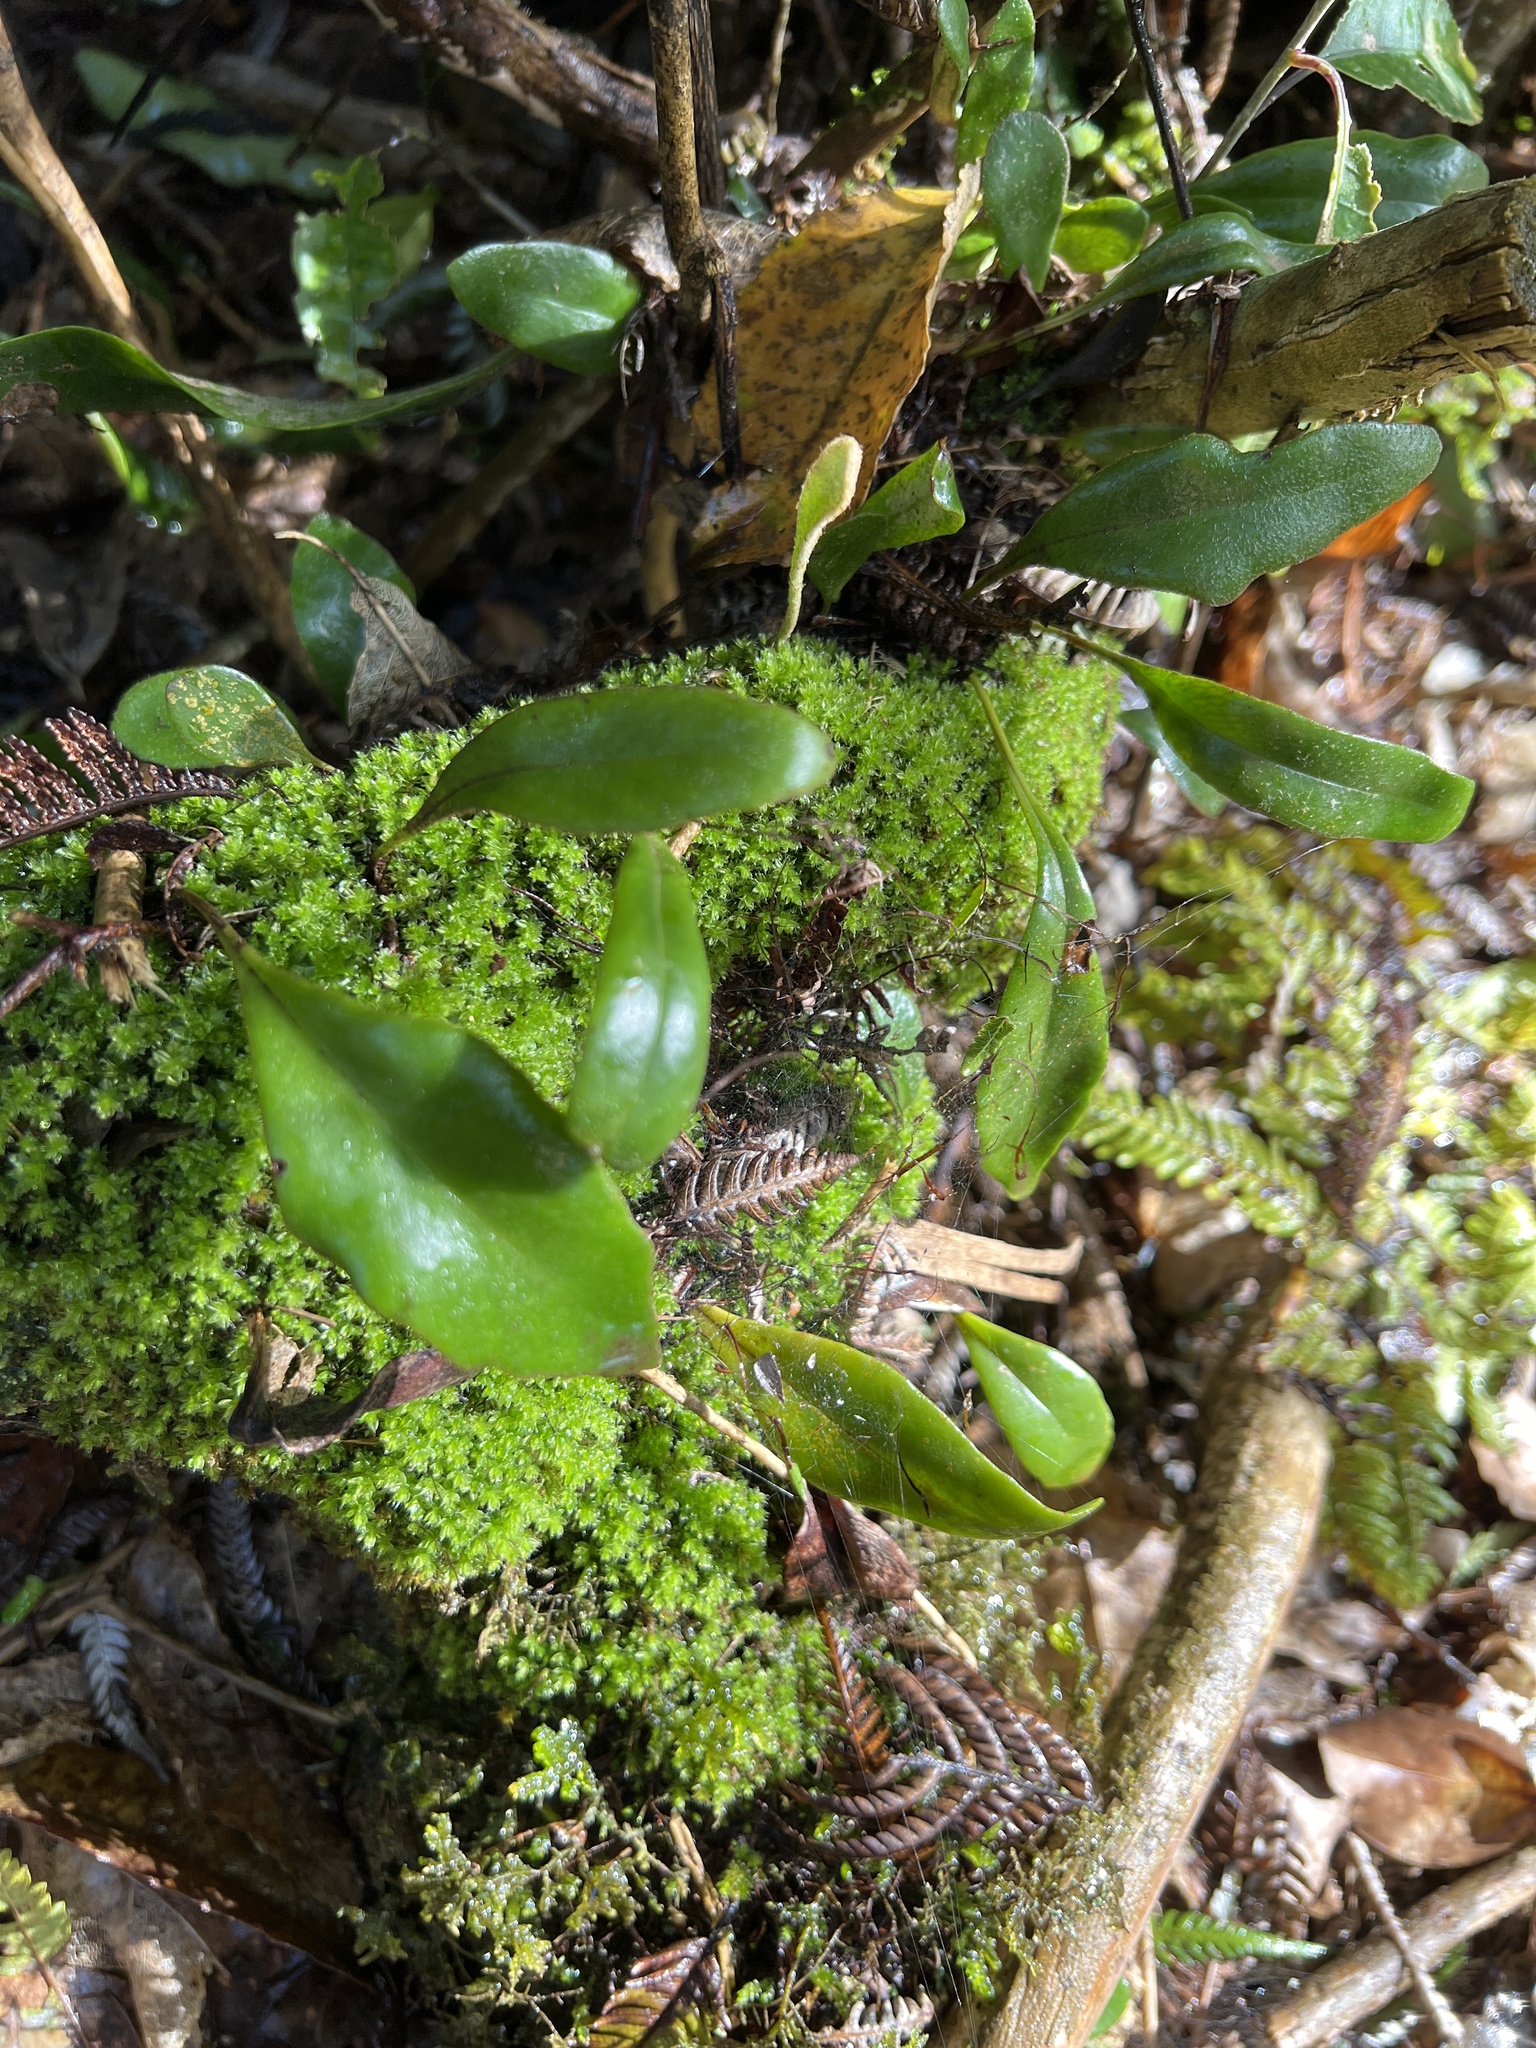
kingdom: Plantae
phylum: Tracheophyta
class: Polypodiopsida
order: Polypodiales
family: Polypodiaceae
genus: Pyrrosia
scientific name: Pyrrosia eleagnifolia
